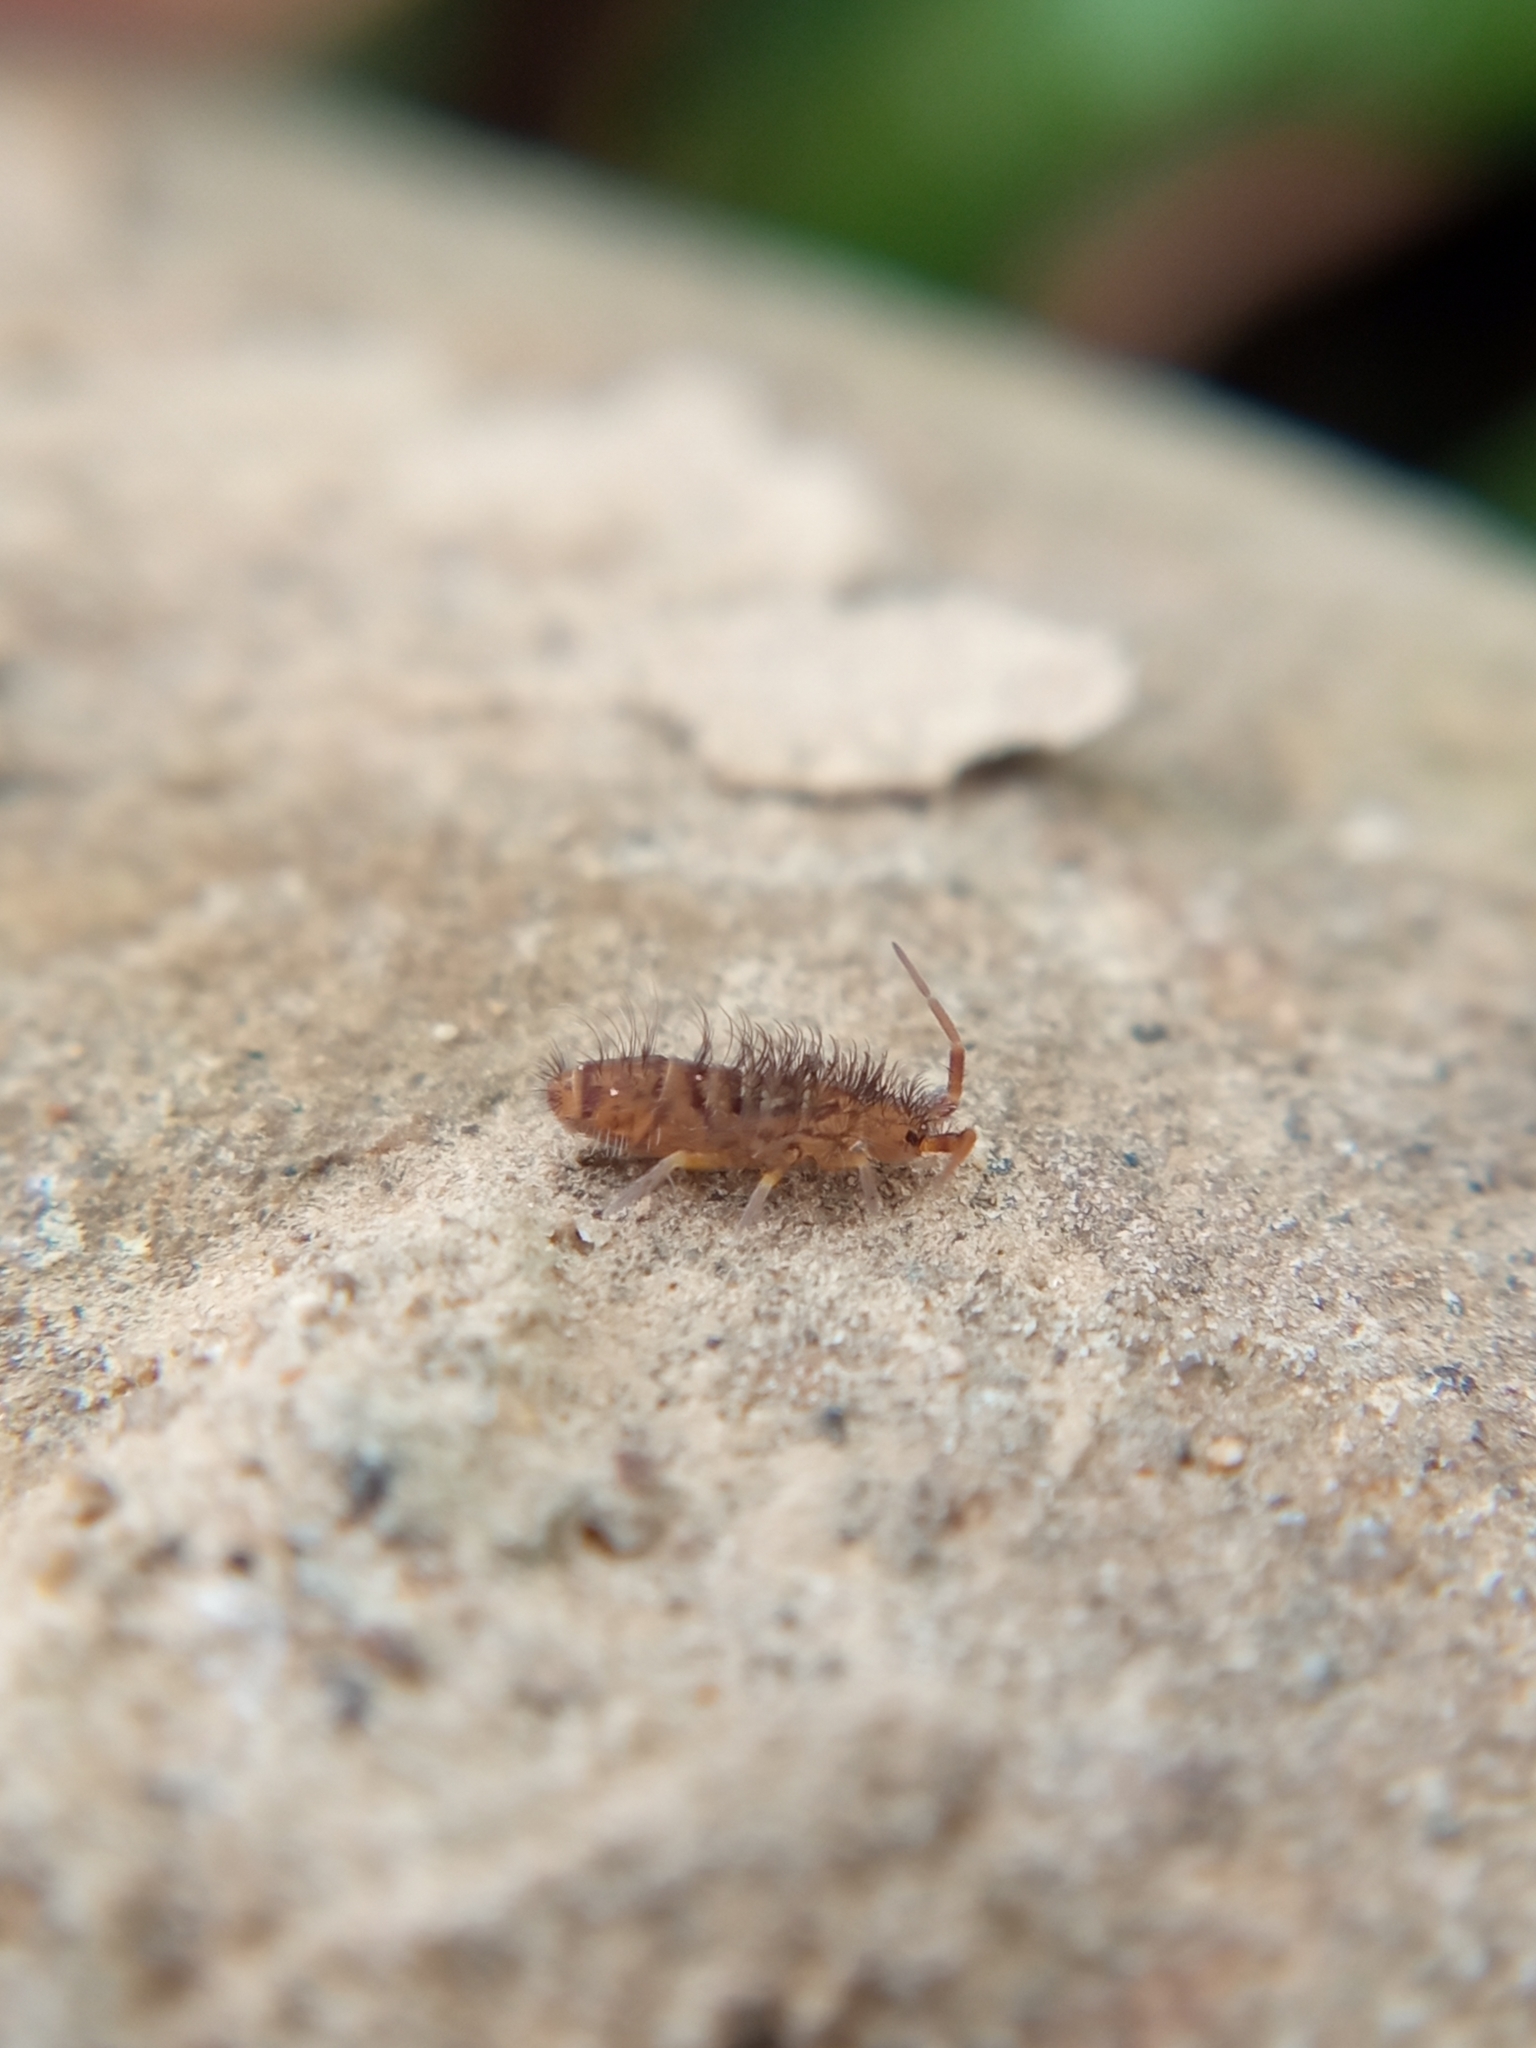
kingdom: Animalia
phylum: Arthropoda
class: Collembola
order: Entomobryomorpha
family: Orchesellidae
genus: Orchesella
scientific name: Orchesella villosa
